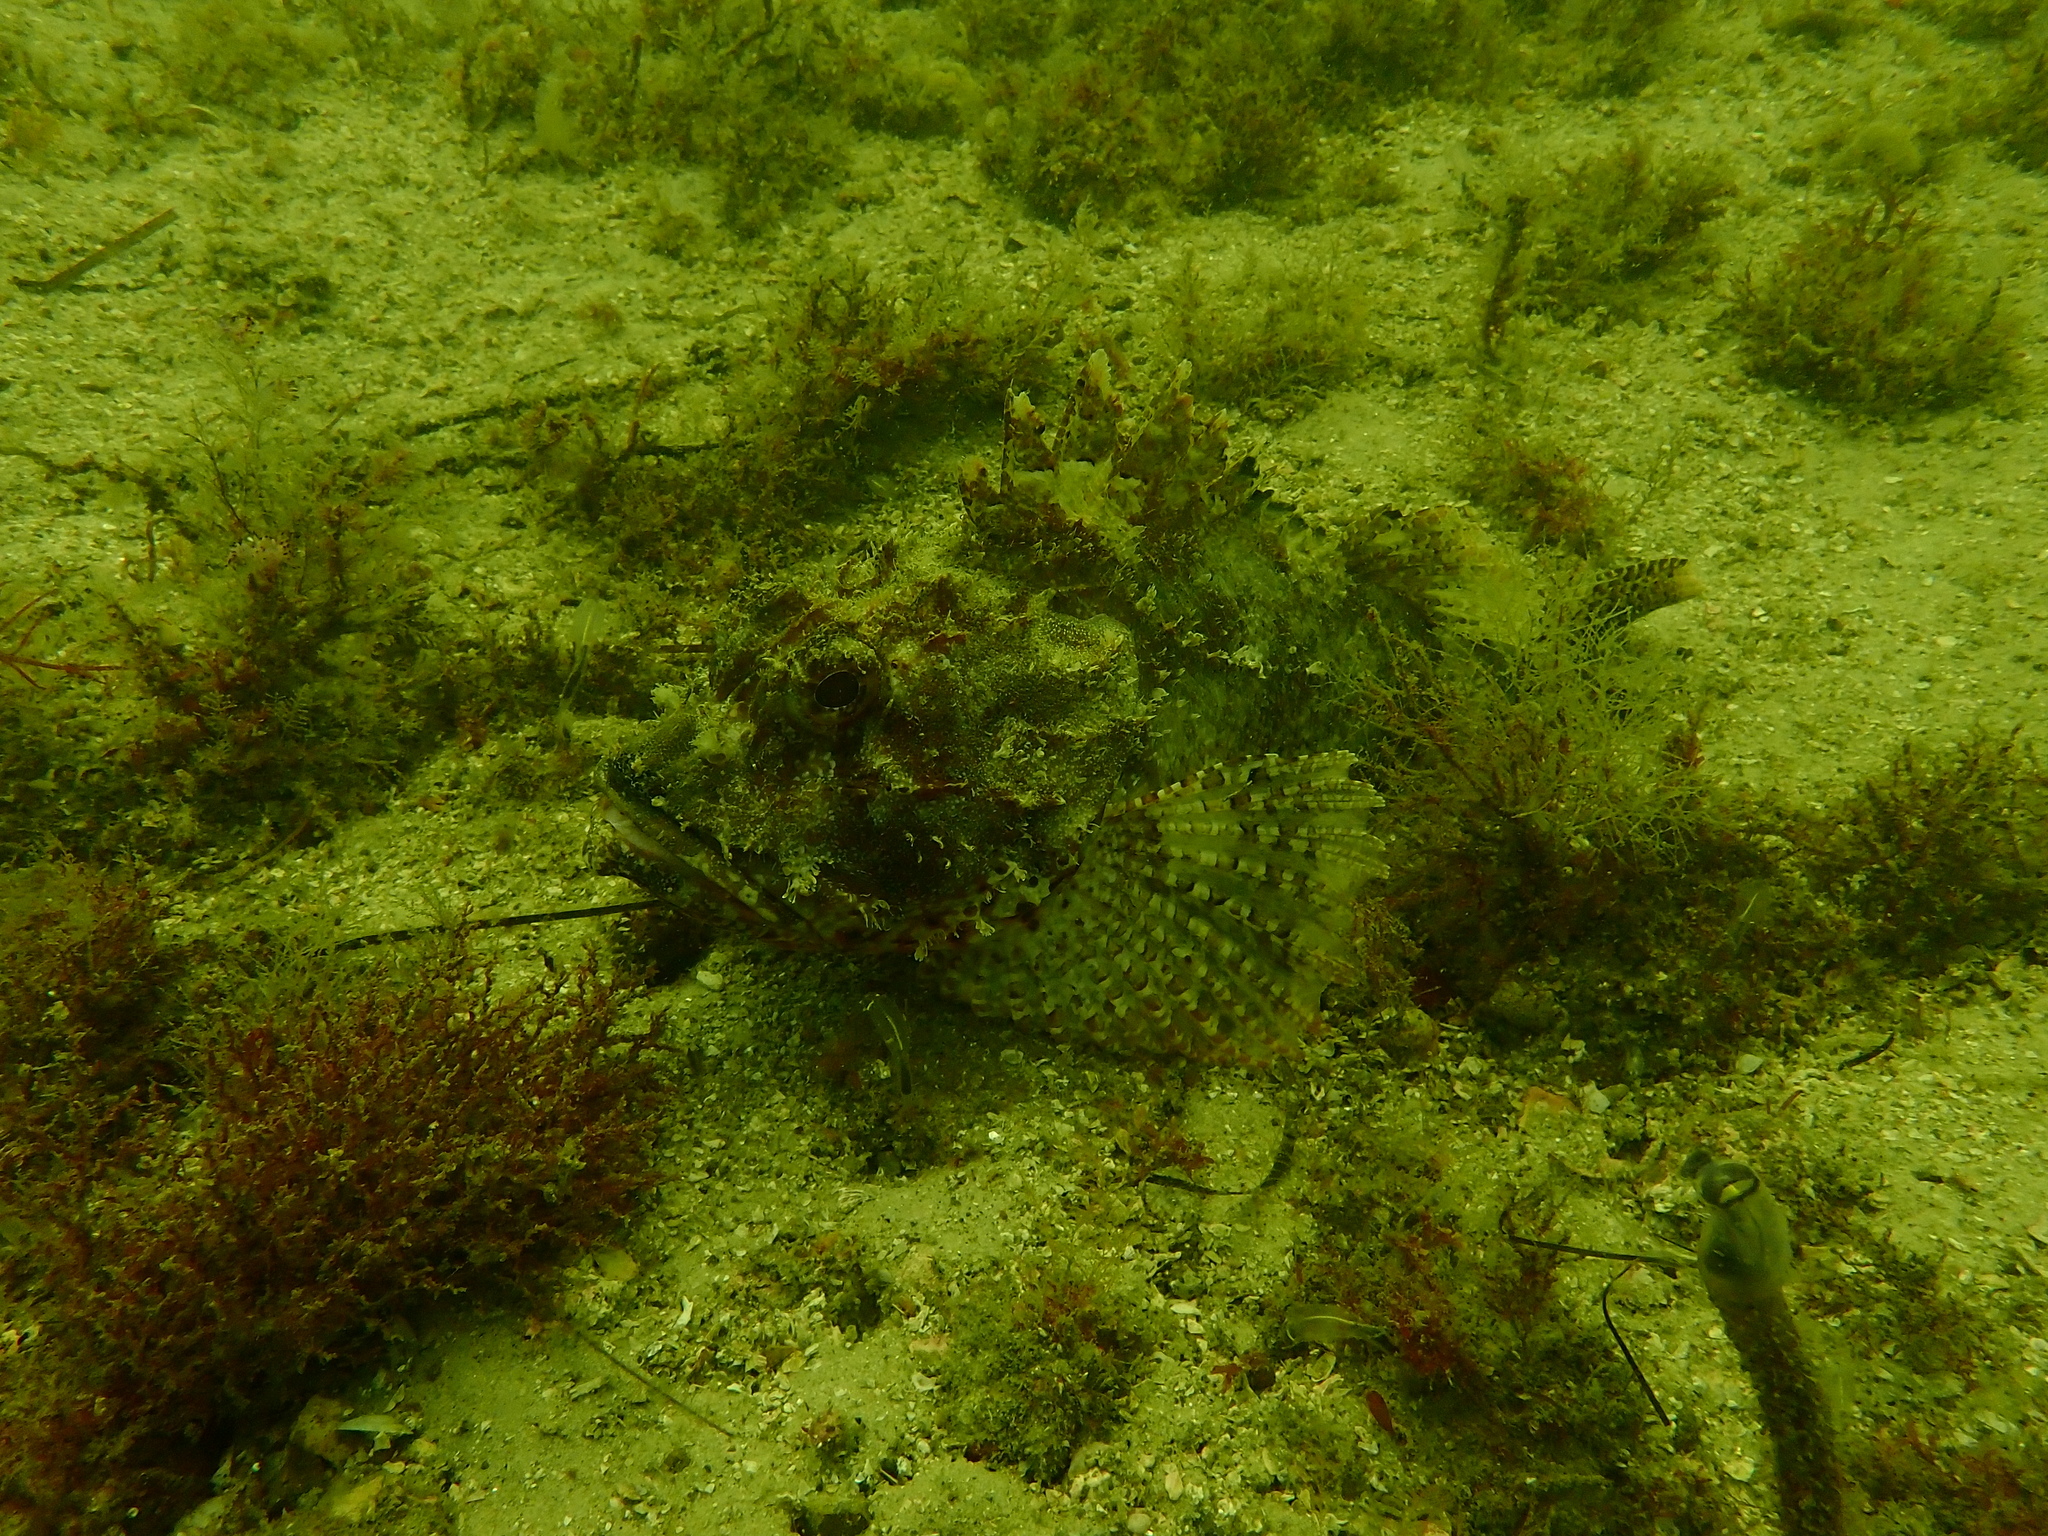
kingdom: Animalia
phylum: Chordata
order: Scorpaeniformes
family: Scorpaenidae
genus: Scorpaena
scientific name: Scorpaena jacksoniensis
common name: Eastern red scorpionfish
